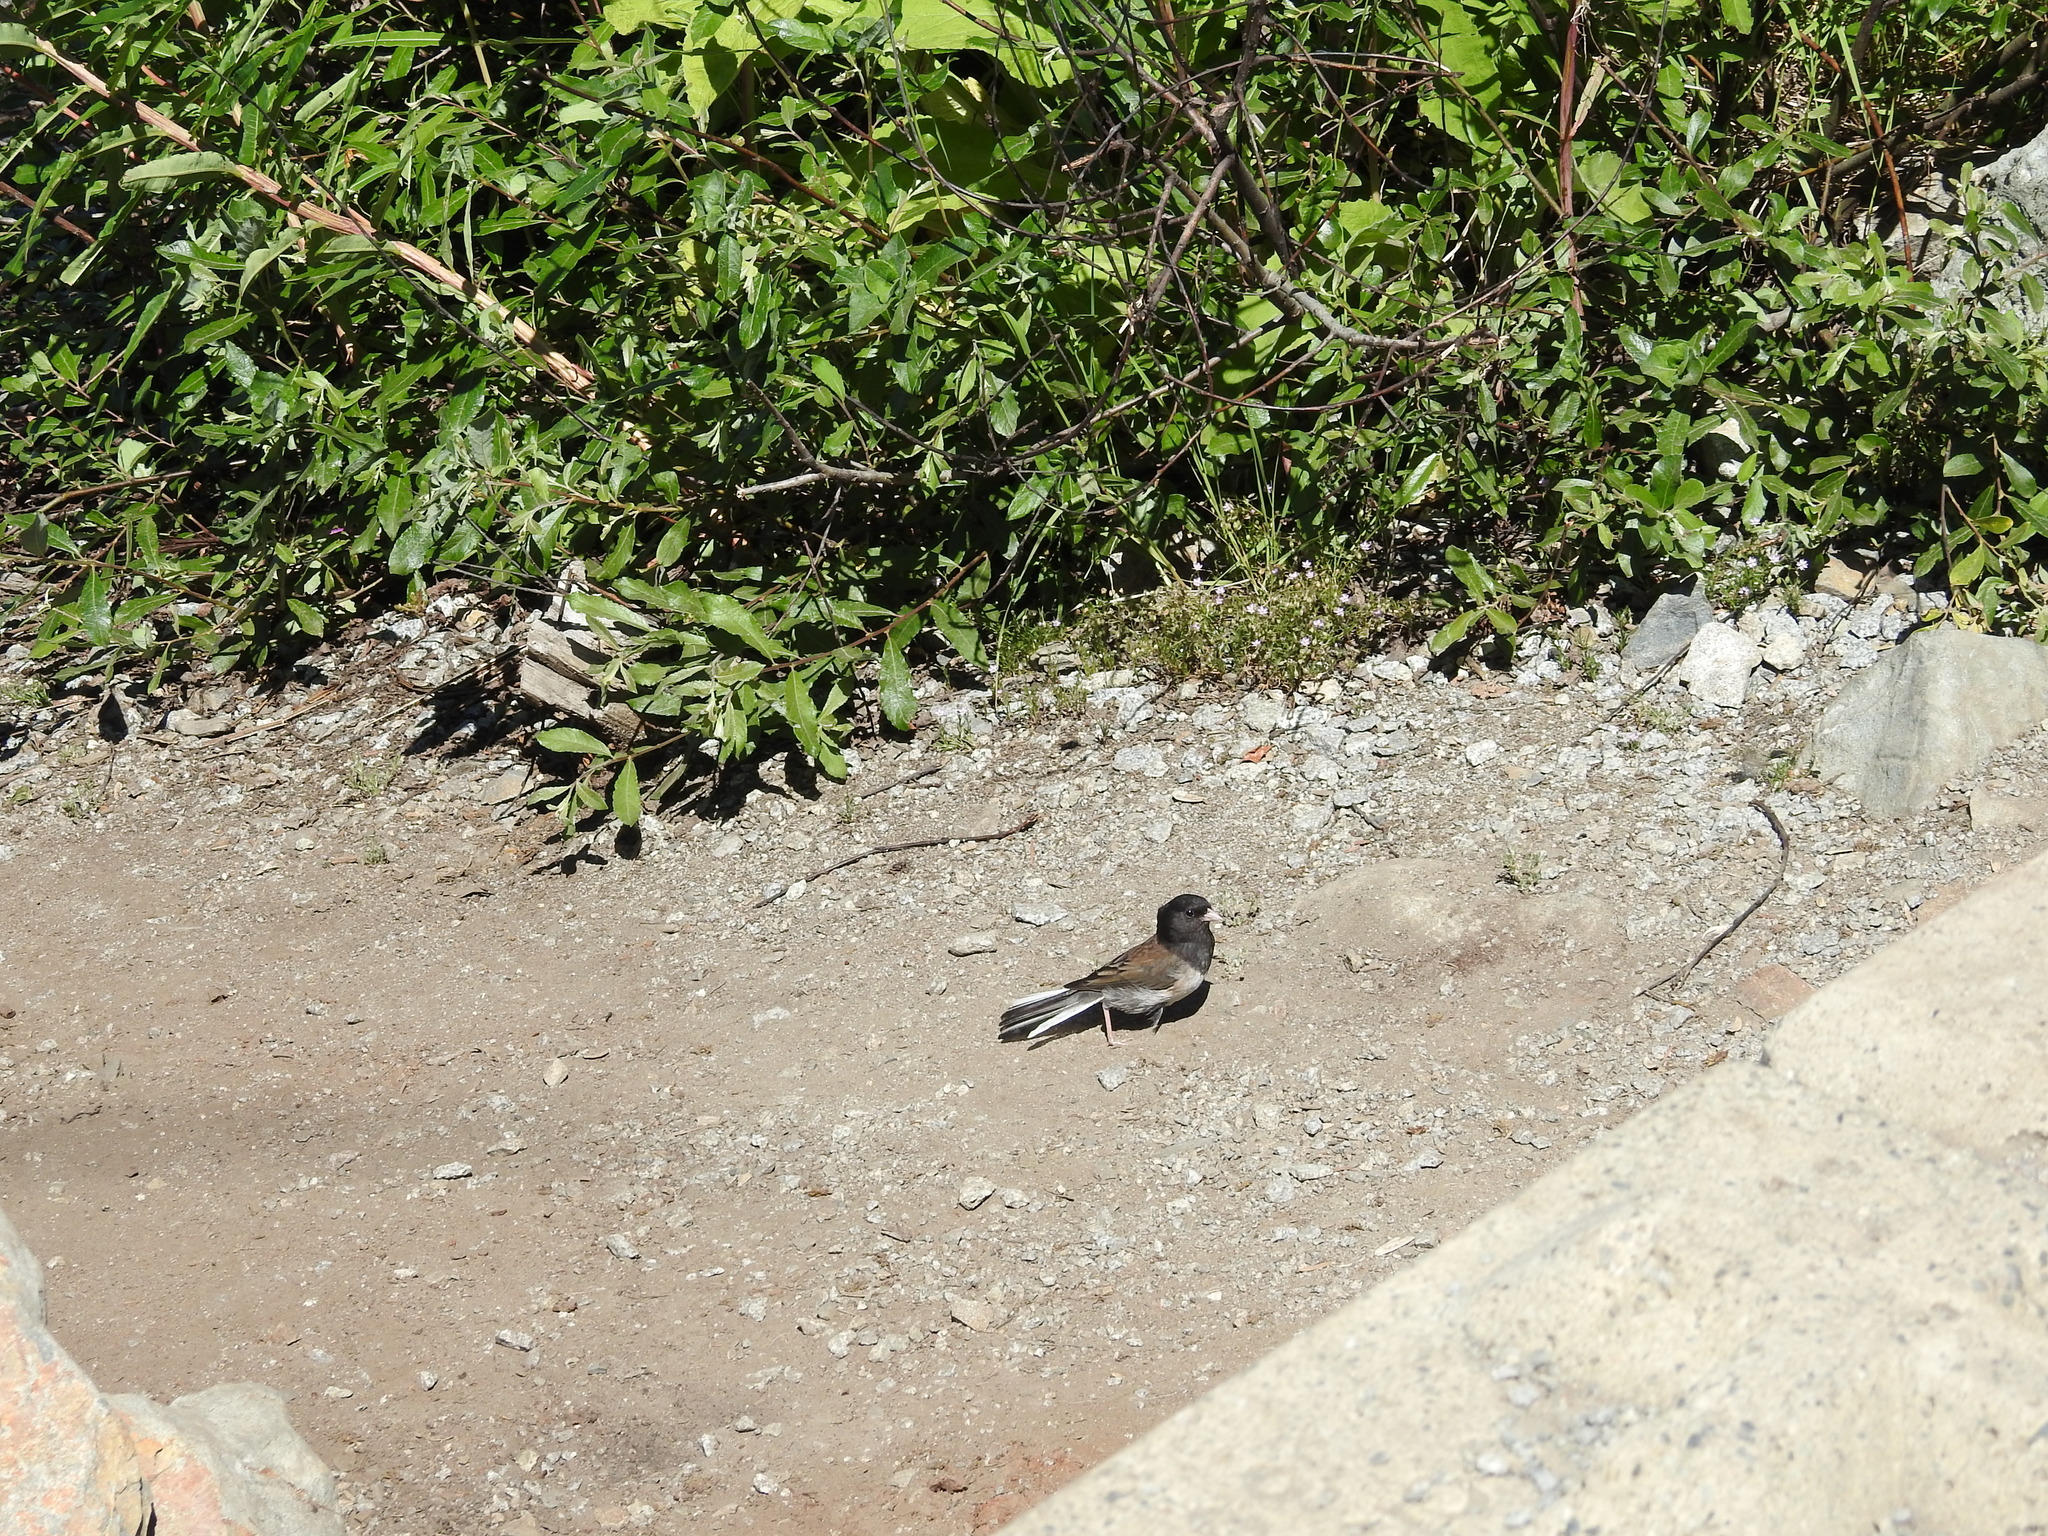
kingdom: Animalia
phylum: Chordata
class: Aves
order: Passeriformes
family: Passerellidae
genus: Junco
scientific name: Junco hyemalis
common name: Dark-eyed junco
